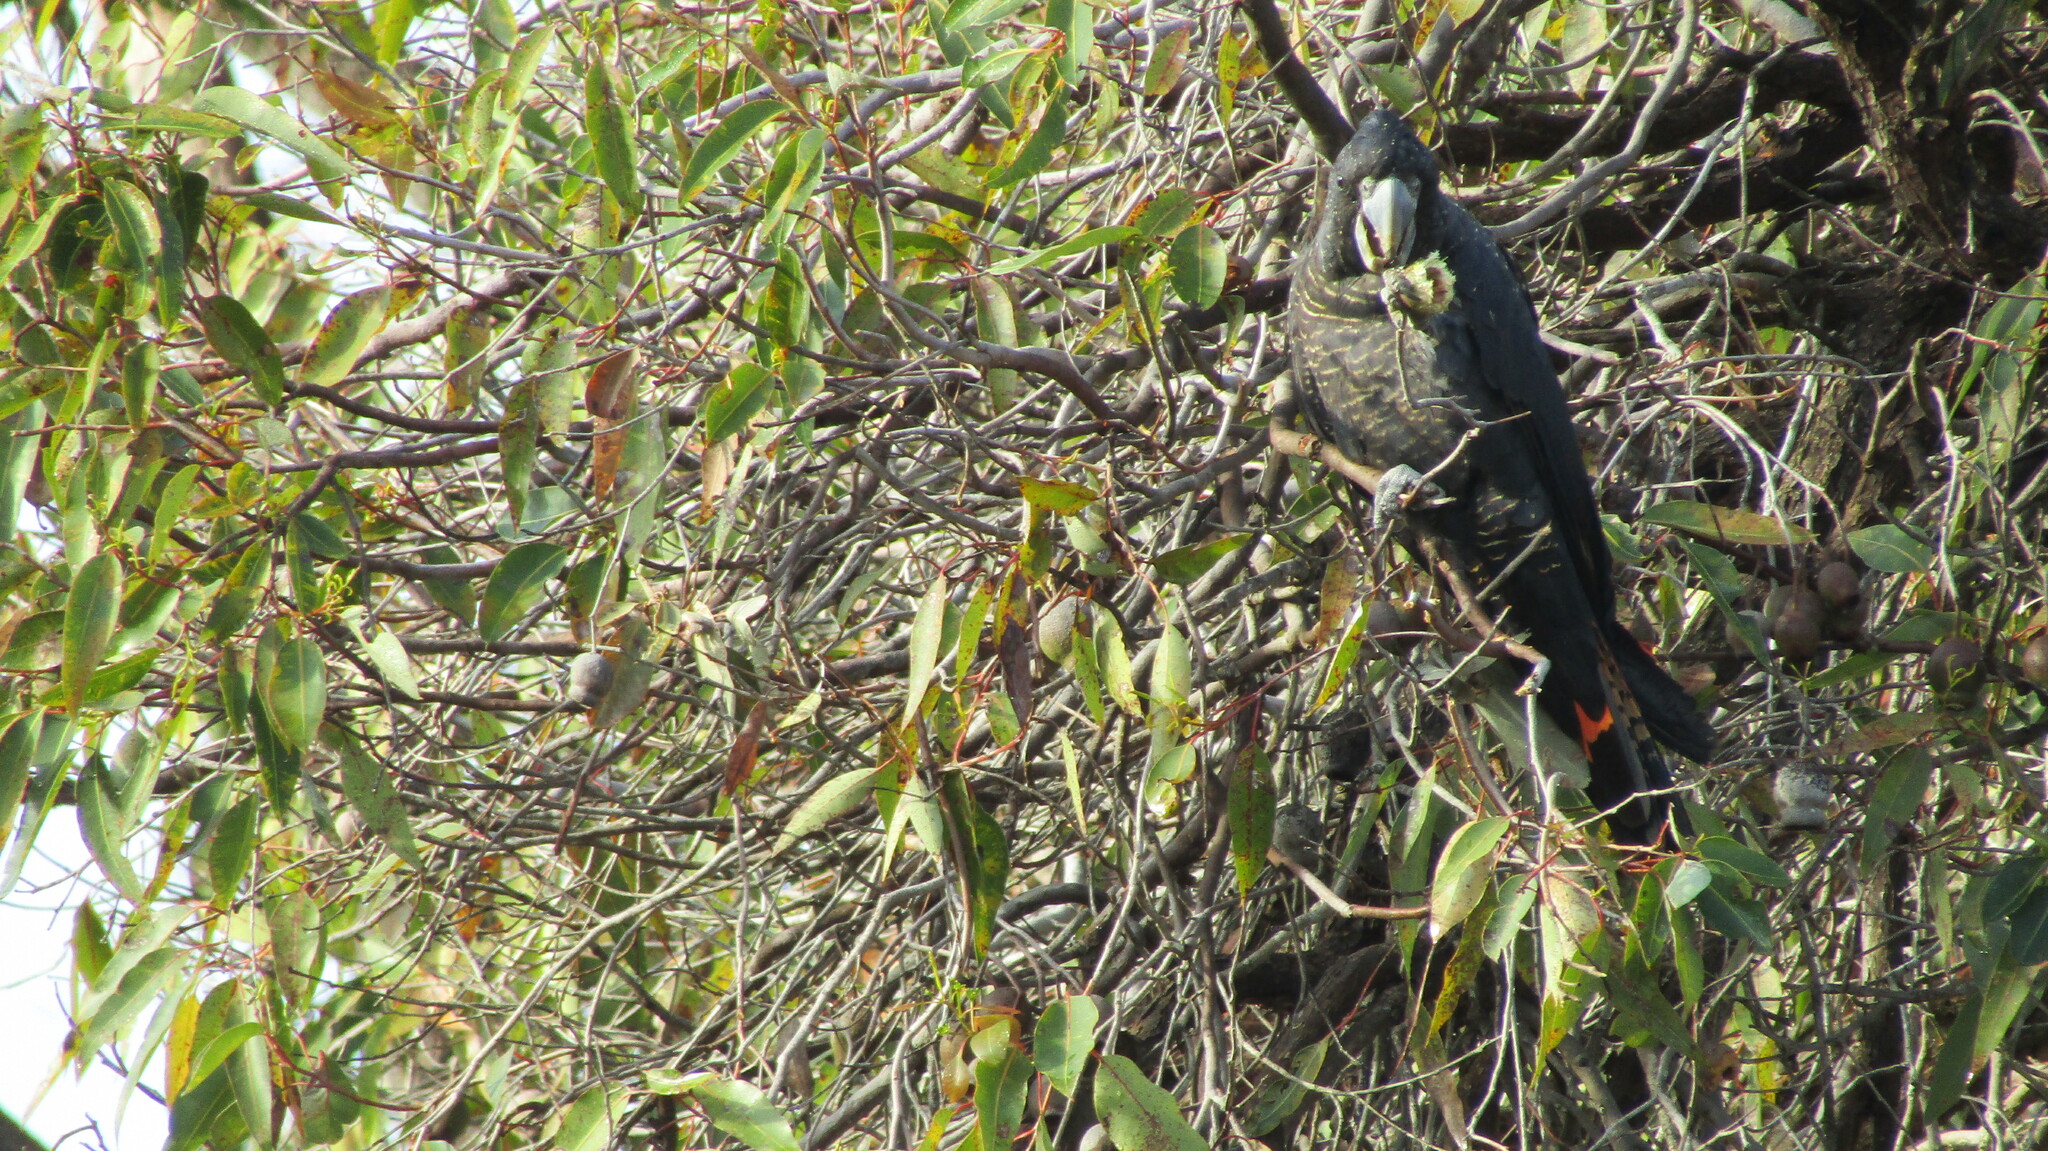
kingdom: Animalia
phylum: Chordata
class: Aves
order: Psittaciformes
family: Psittacidae
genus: Calyptorhynchus
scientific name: Calyptorhynchus banksii
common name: Red-tailed black cockatoo
